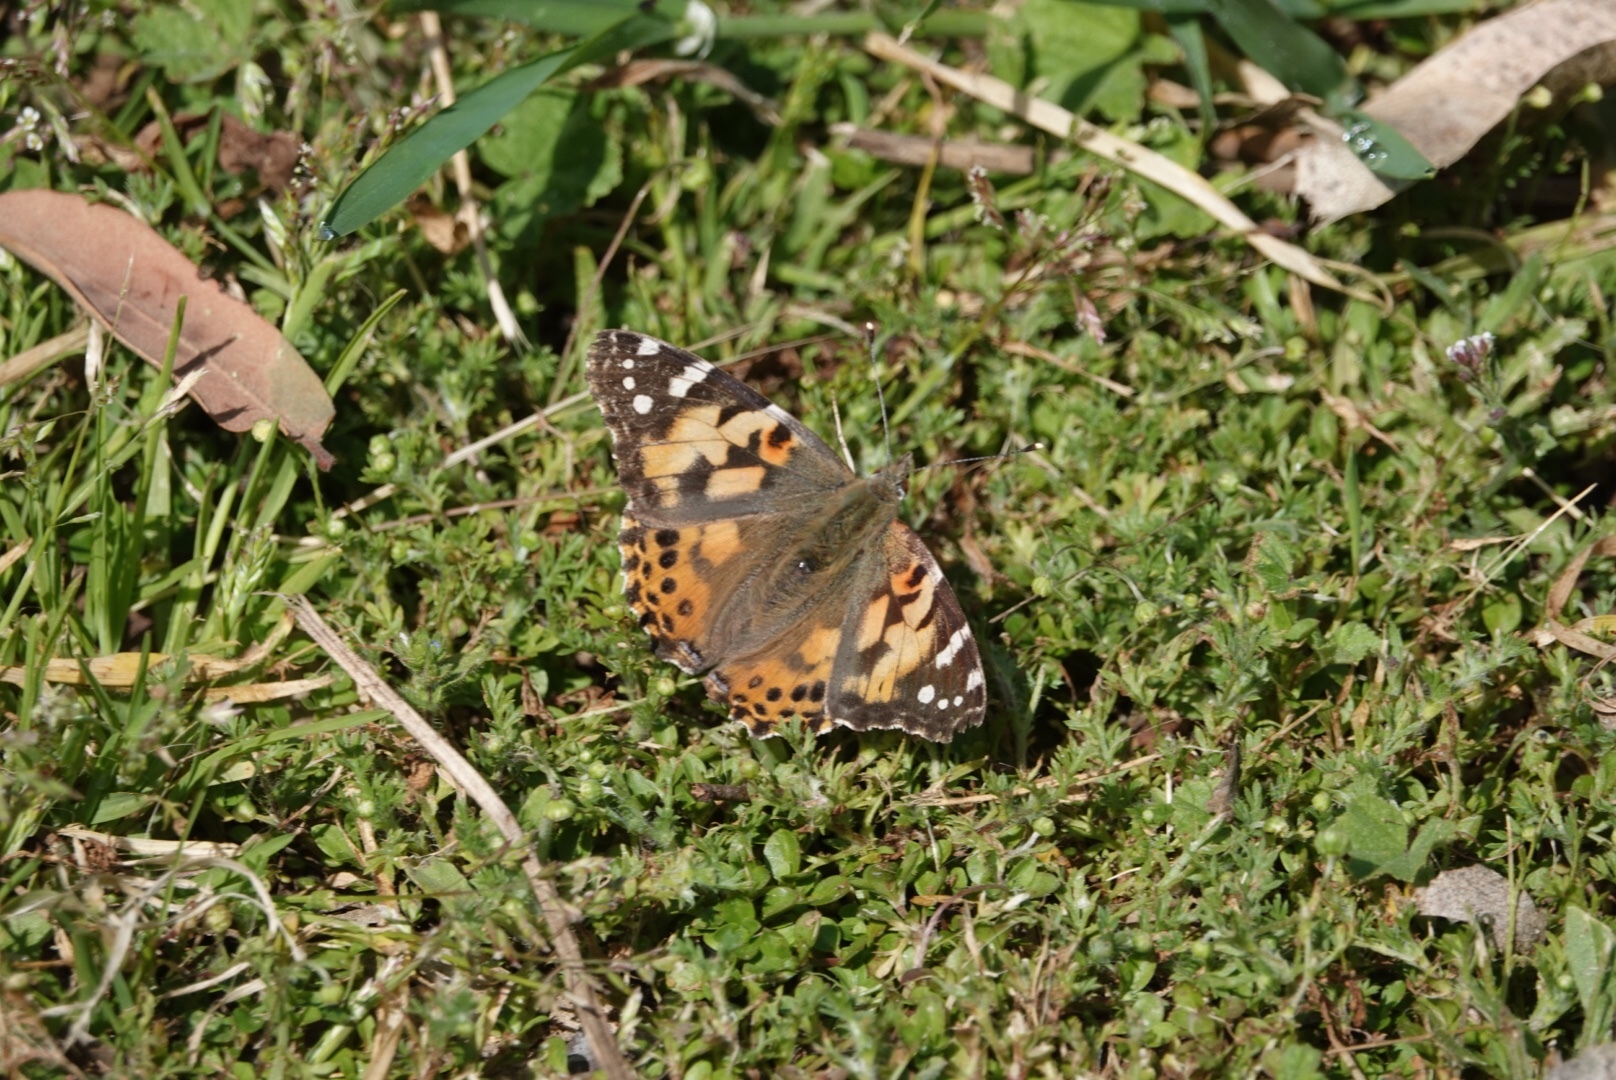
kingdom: Animalia
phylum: Arthropoda
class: Insecta
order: Lepidoptera
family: Nymphalidae
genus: Vanessa
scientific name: Vanessa cardui
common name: Painted lady
